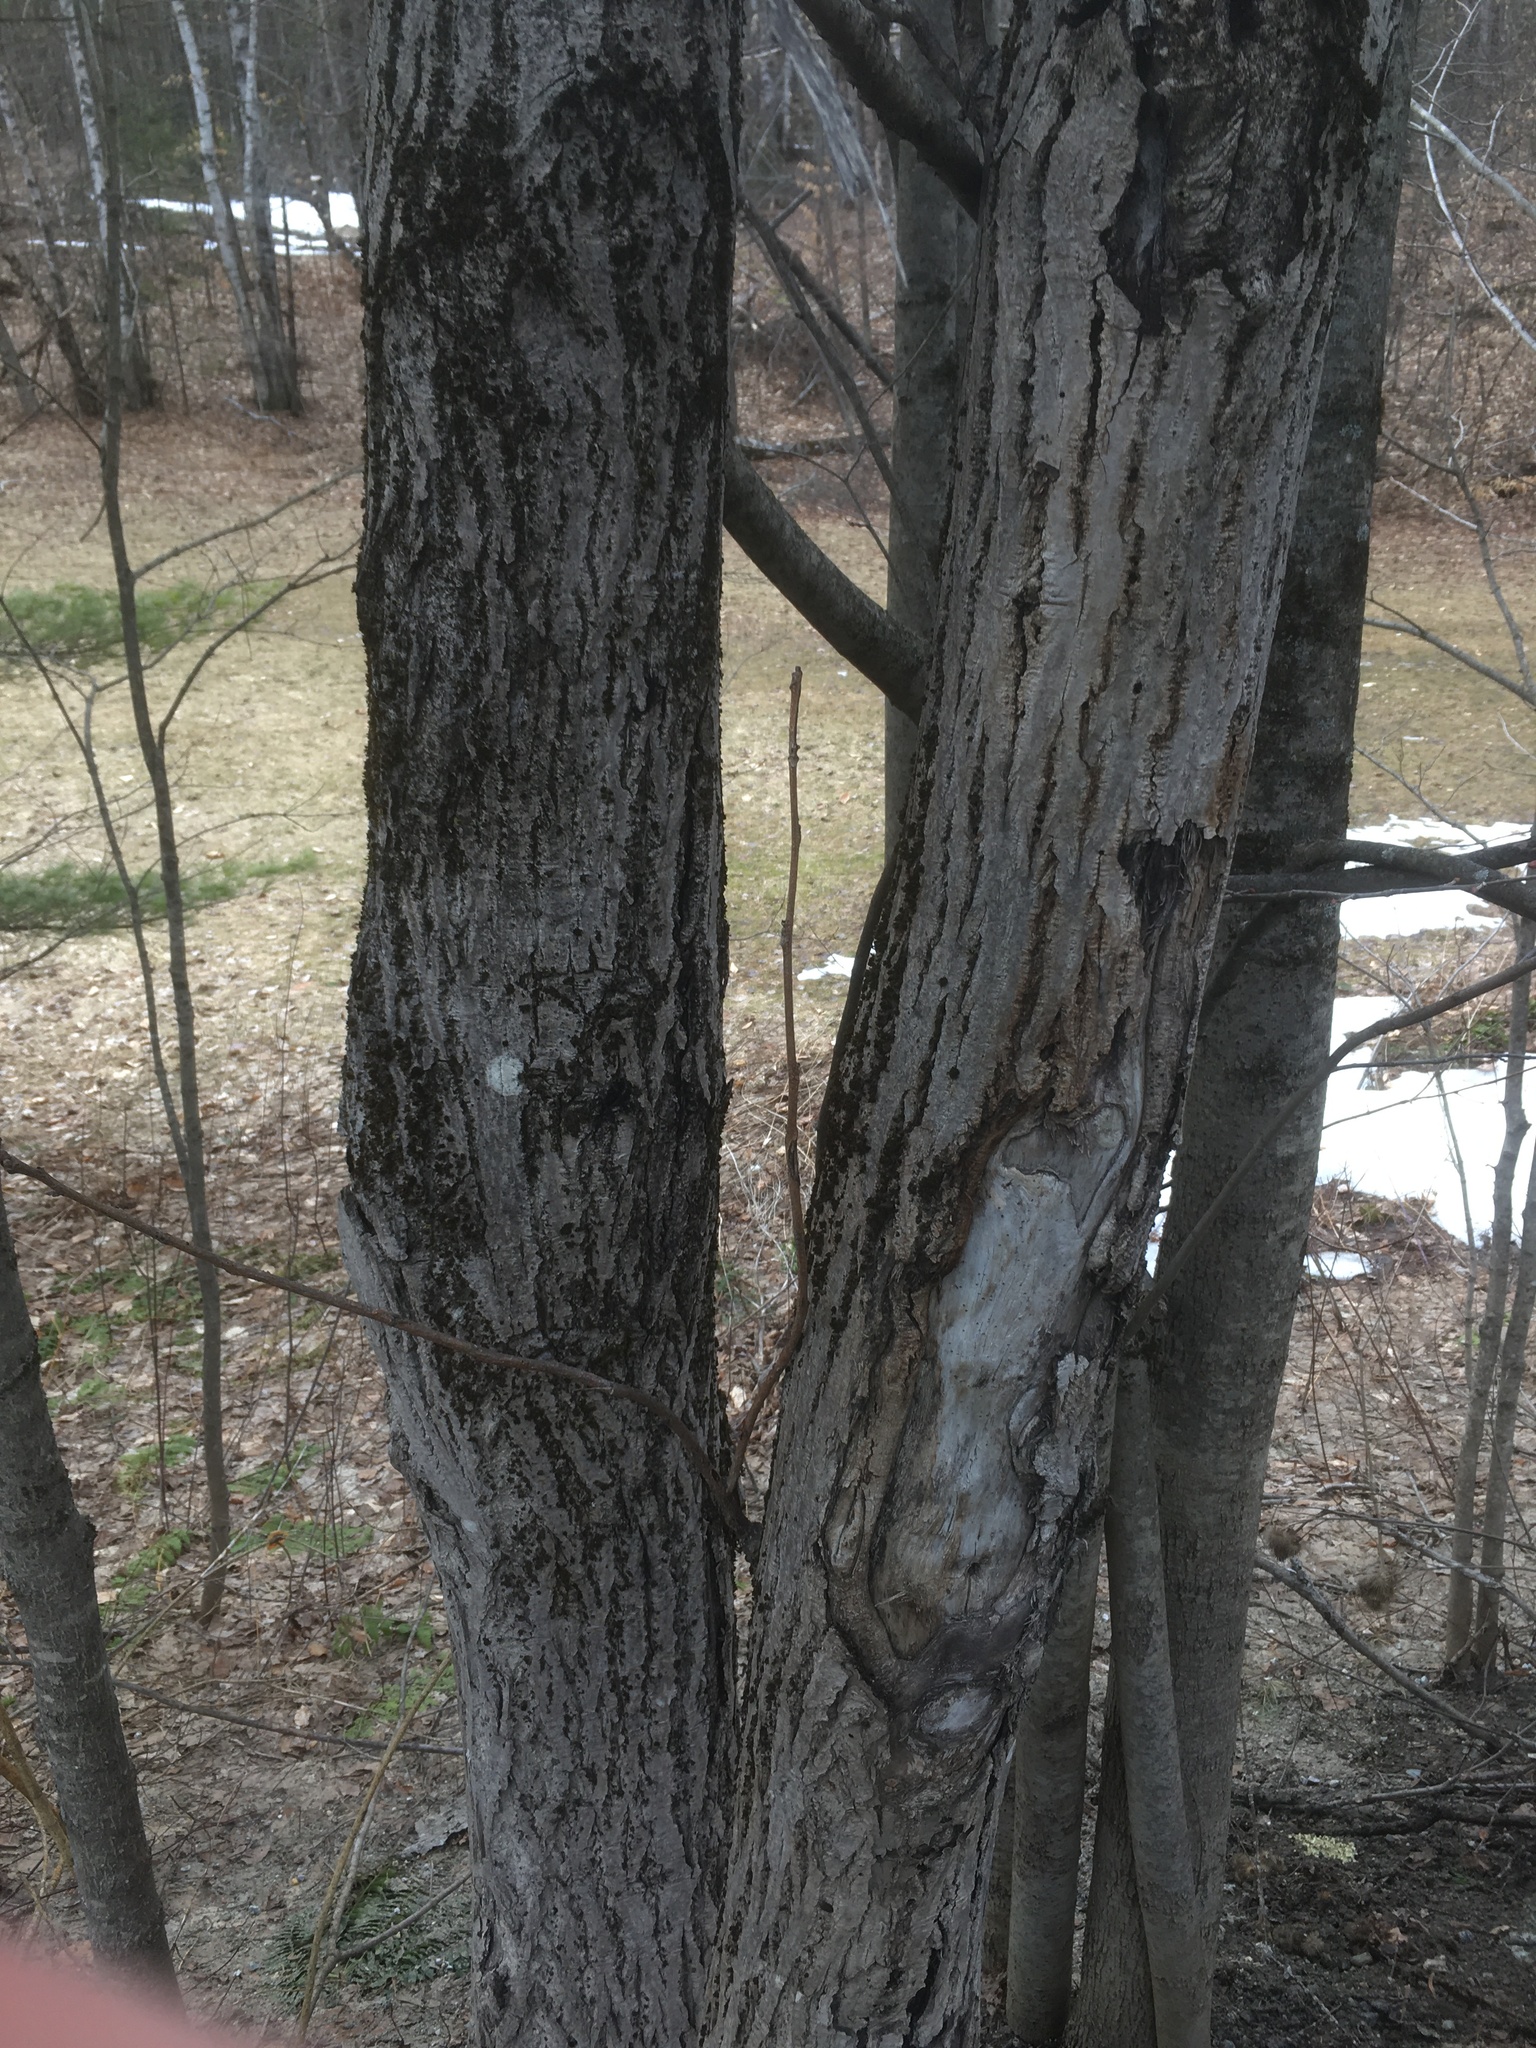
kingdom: Plantae
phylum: Tracheophyta
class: Magnoliopsida
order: Fagales
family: Juglandaceae
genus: Juglans
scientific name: Juglans cinerea
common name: Butternut
